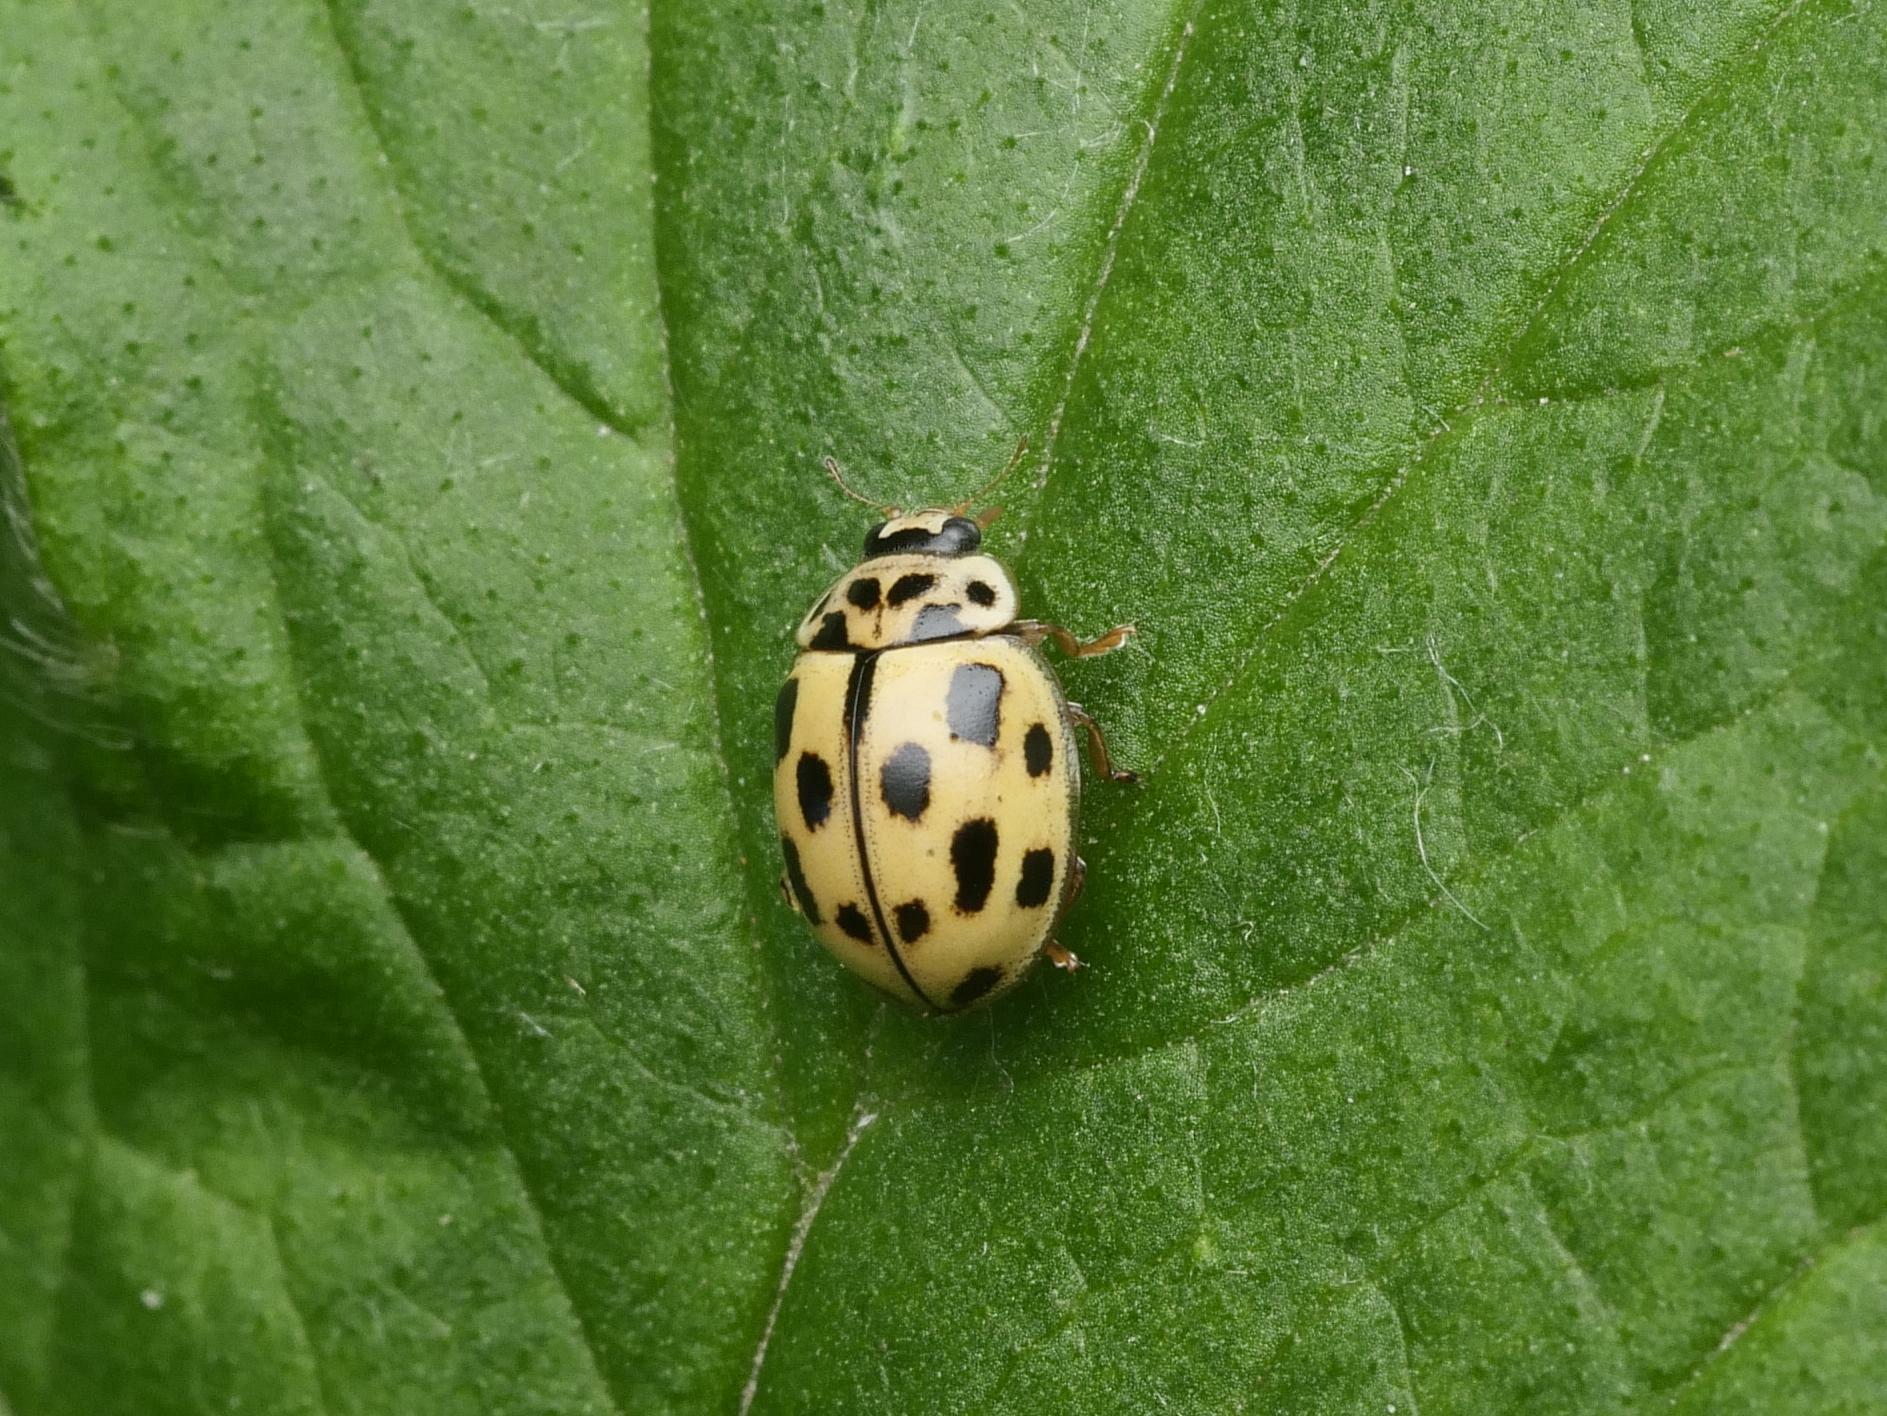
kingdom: Animalia
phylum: Arthropoda
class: Insecta
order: Coleoptera
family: Coccinellidae
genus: Propylaea
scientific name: Propylaea quatuordecimpunctata
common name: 14-spotted ladybird beetle
